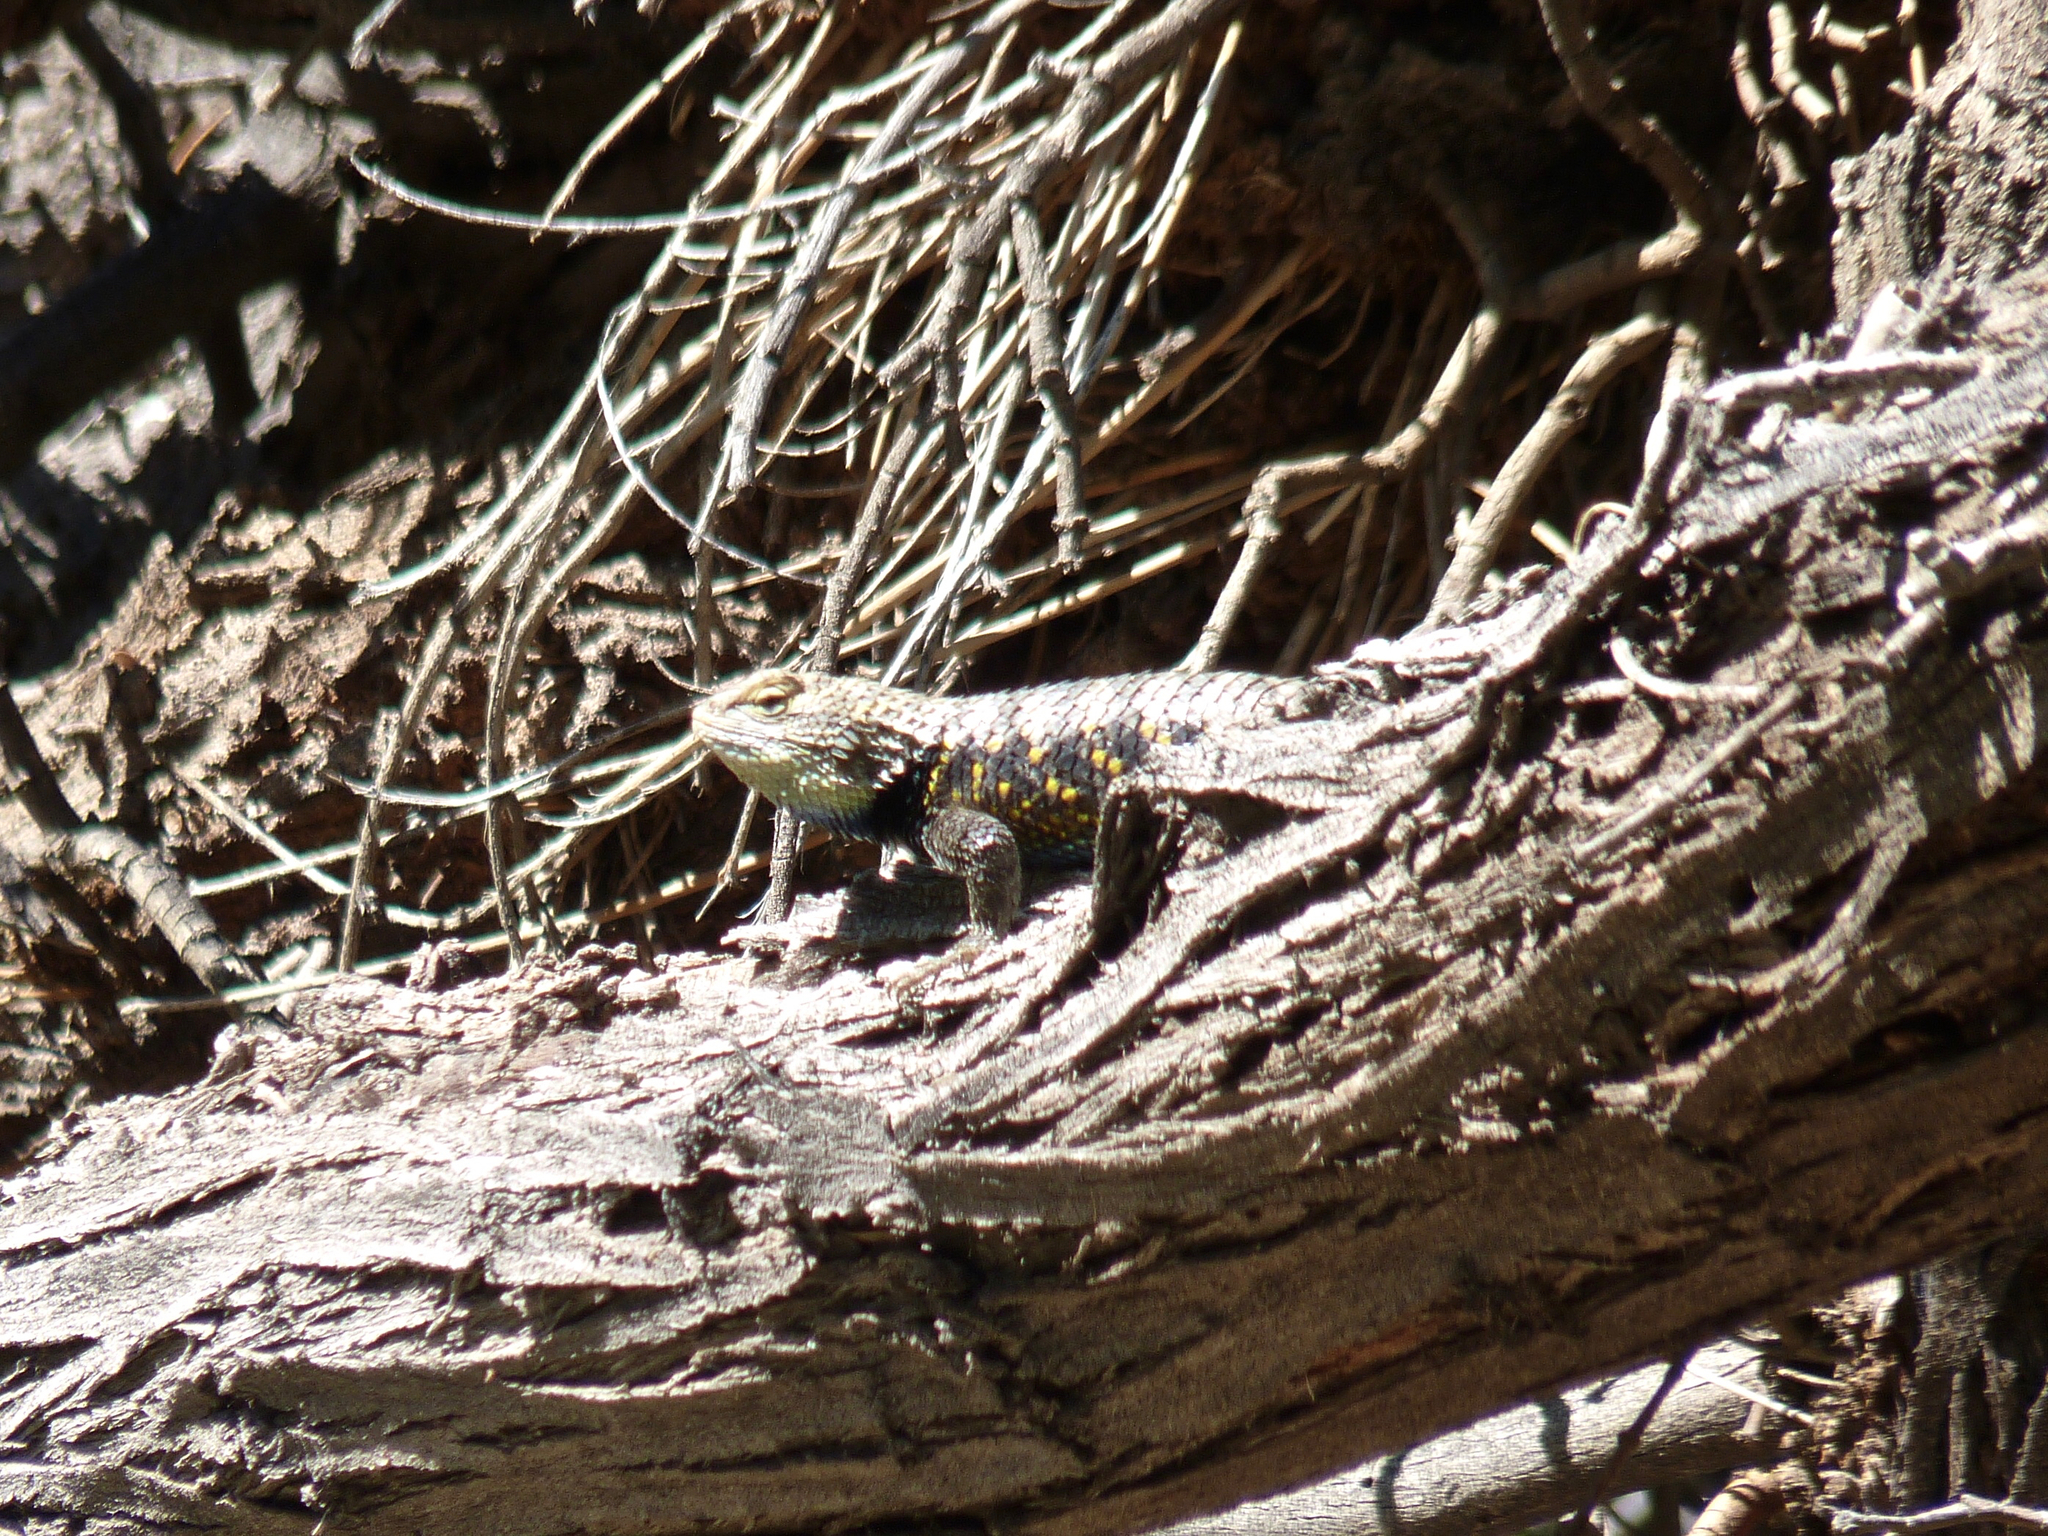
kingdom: Animalia
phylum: Chordata
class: Squamata
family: Phrynosomatidae
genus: Sceloporus
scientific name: Sceloporus uniformis
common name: Yellow-backed spiny lizard
